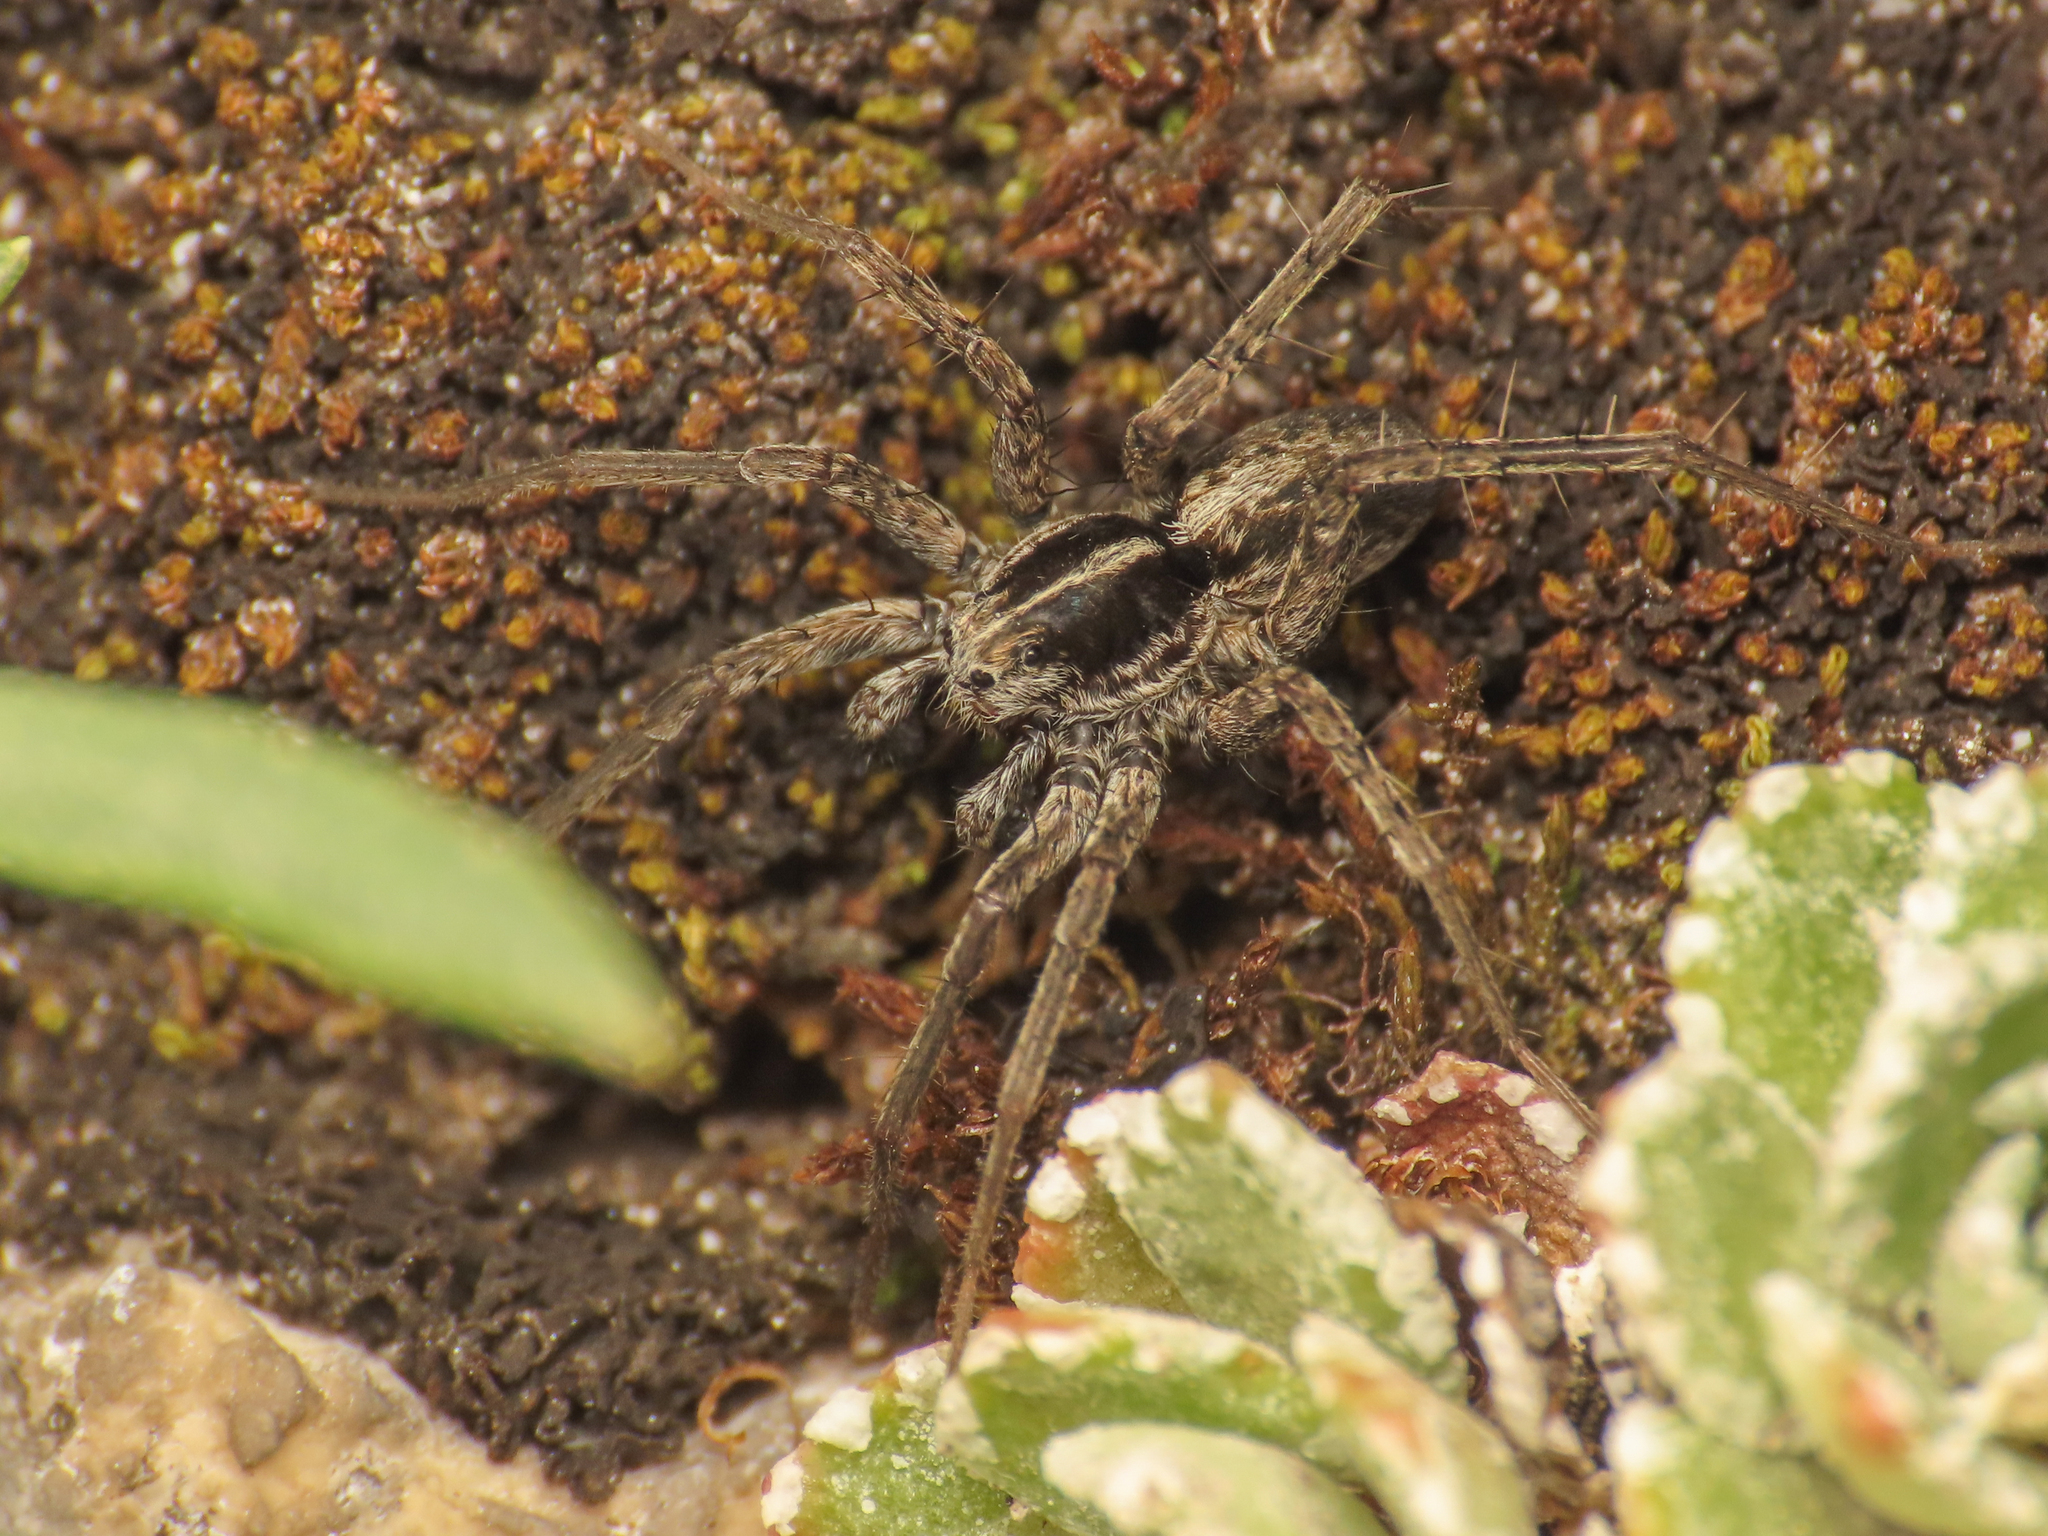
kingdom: Animalia
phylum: Arthropoda
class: Arachnida
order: Araneae
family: Lycosidae
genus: Pardosa
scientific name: Pardosa blanda
